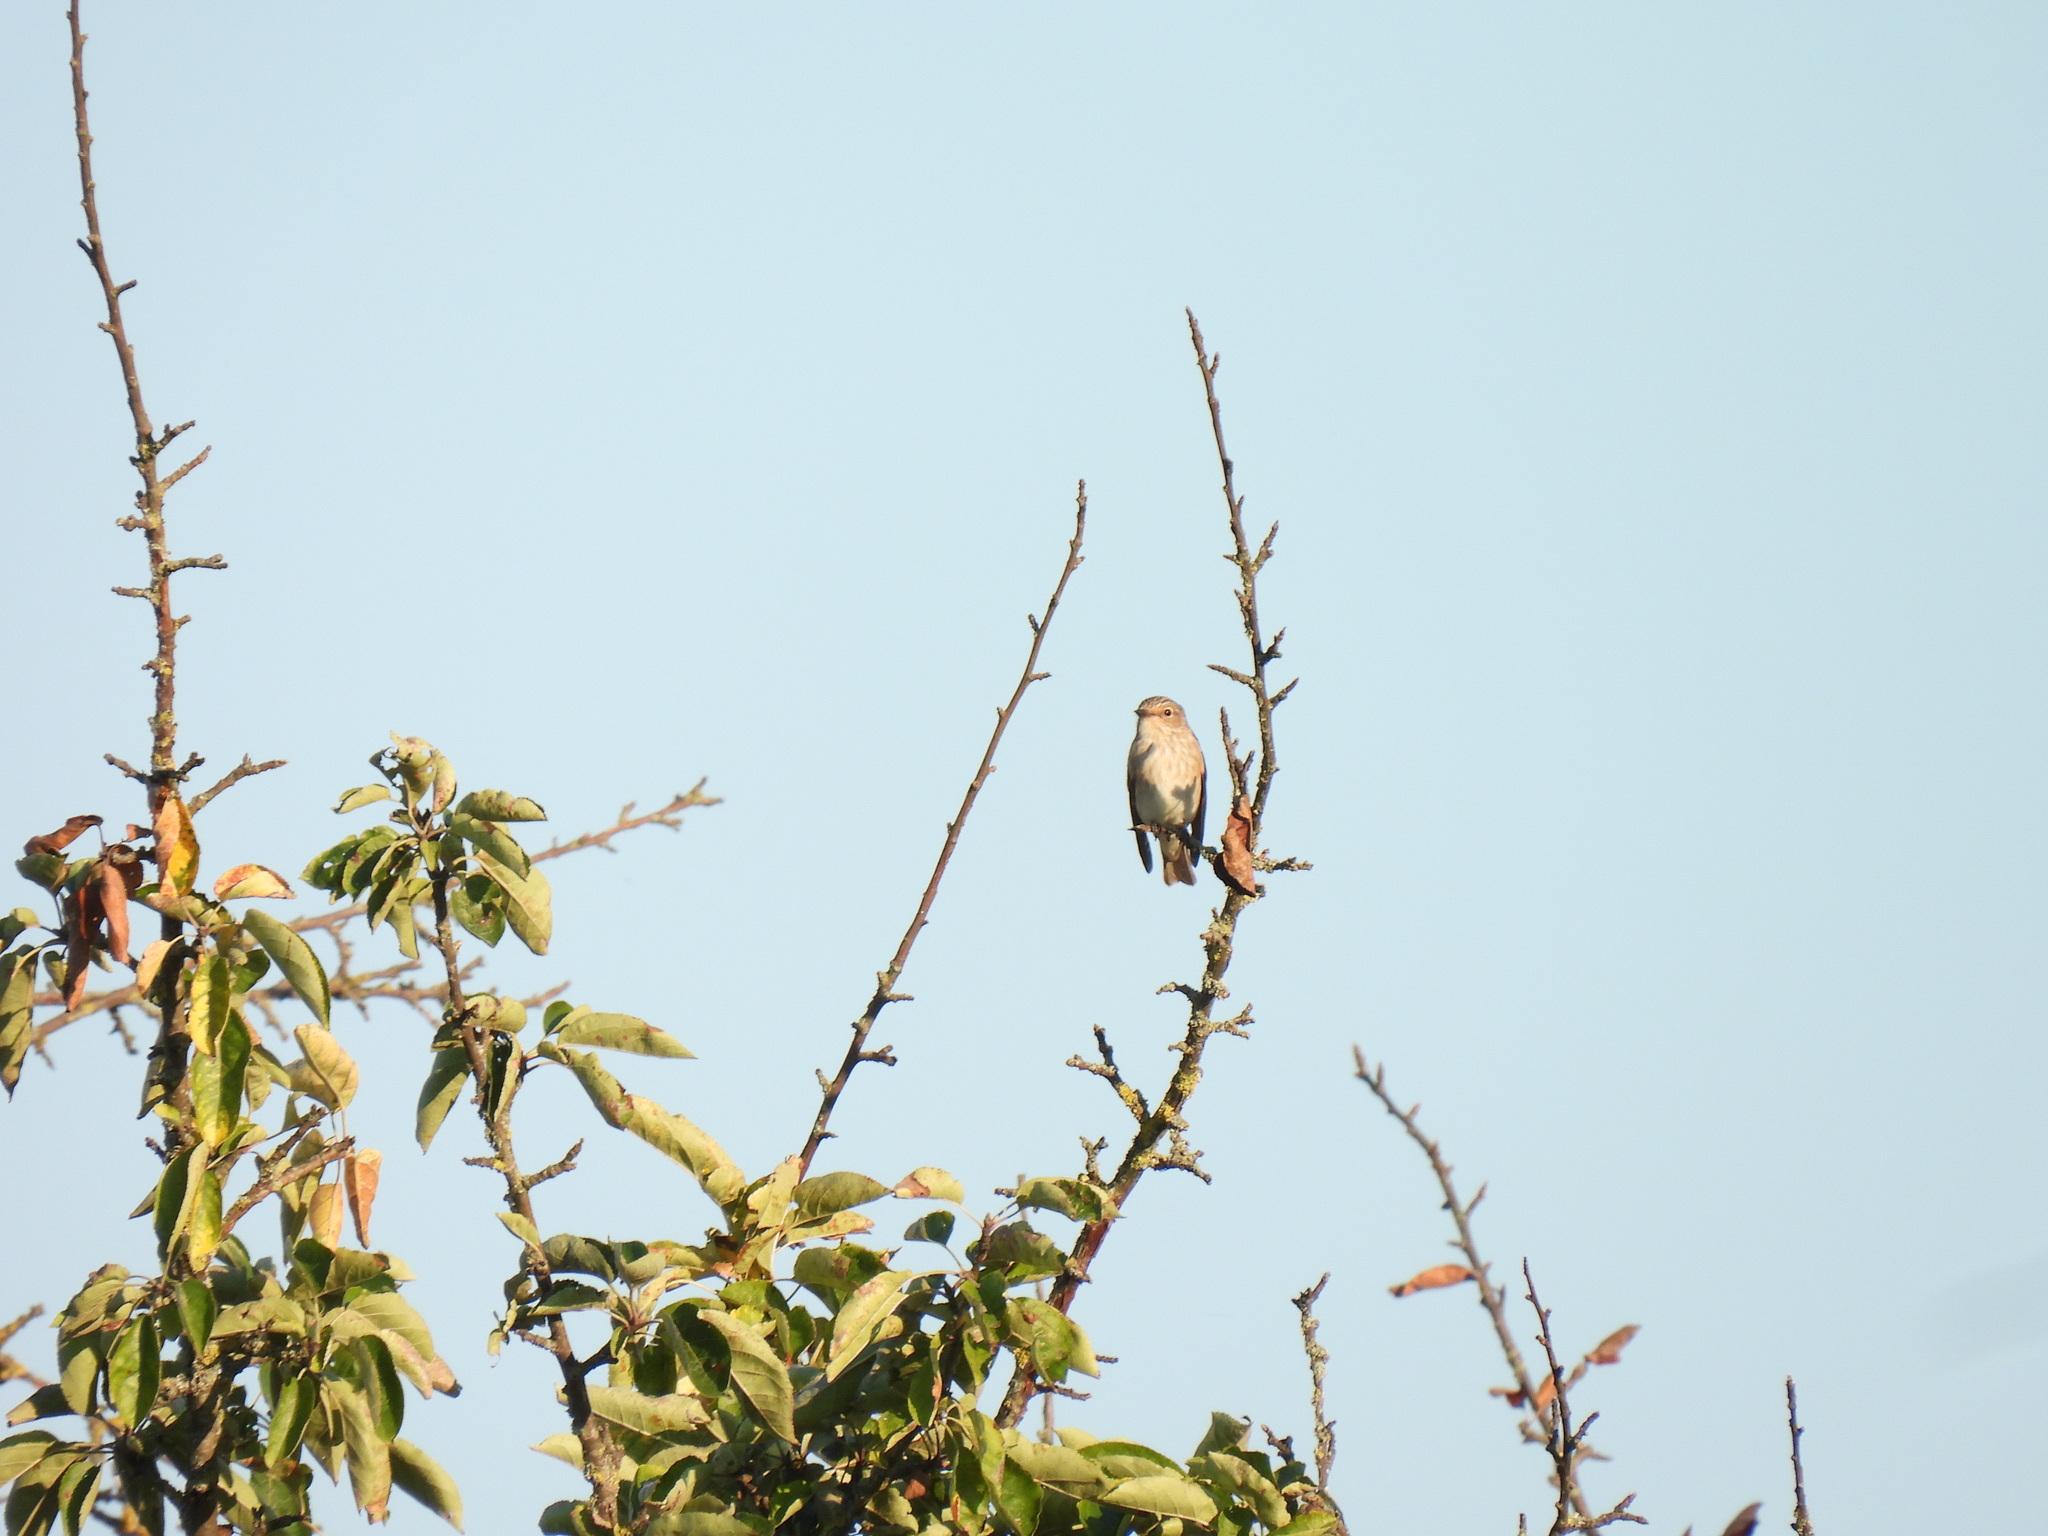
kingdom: Animalia
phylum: Chordata
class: Aves
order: Passeriformes
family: Muscicapidae
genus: Muscicapa
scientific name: Muscicapa striata
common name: Spotted flycatcher
